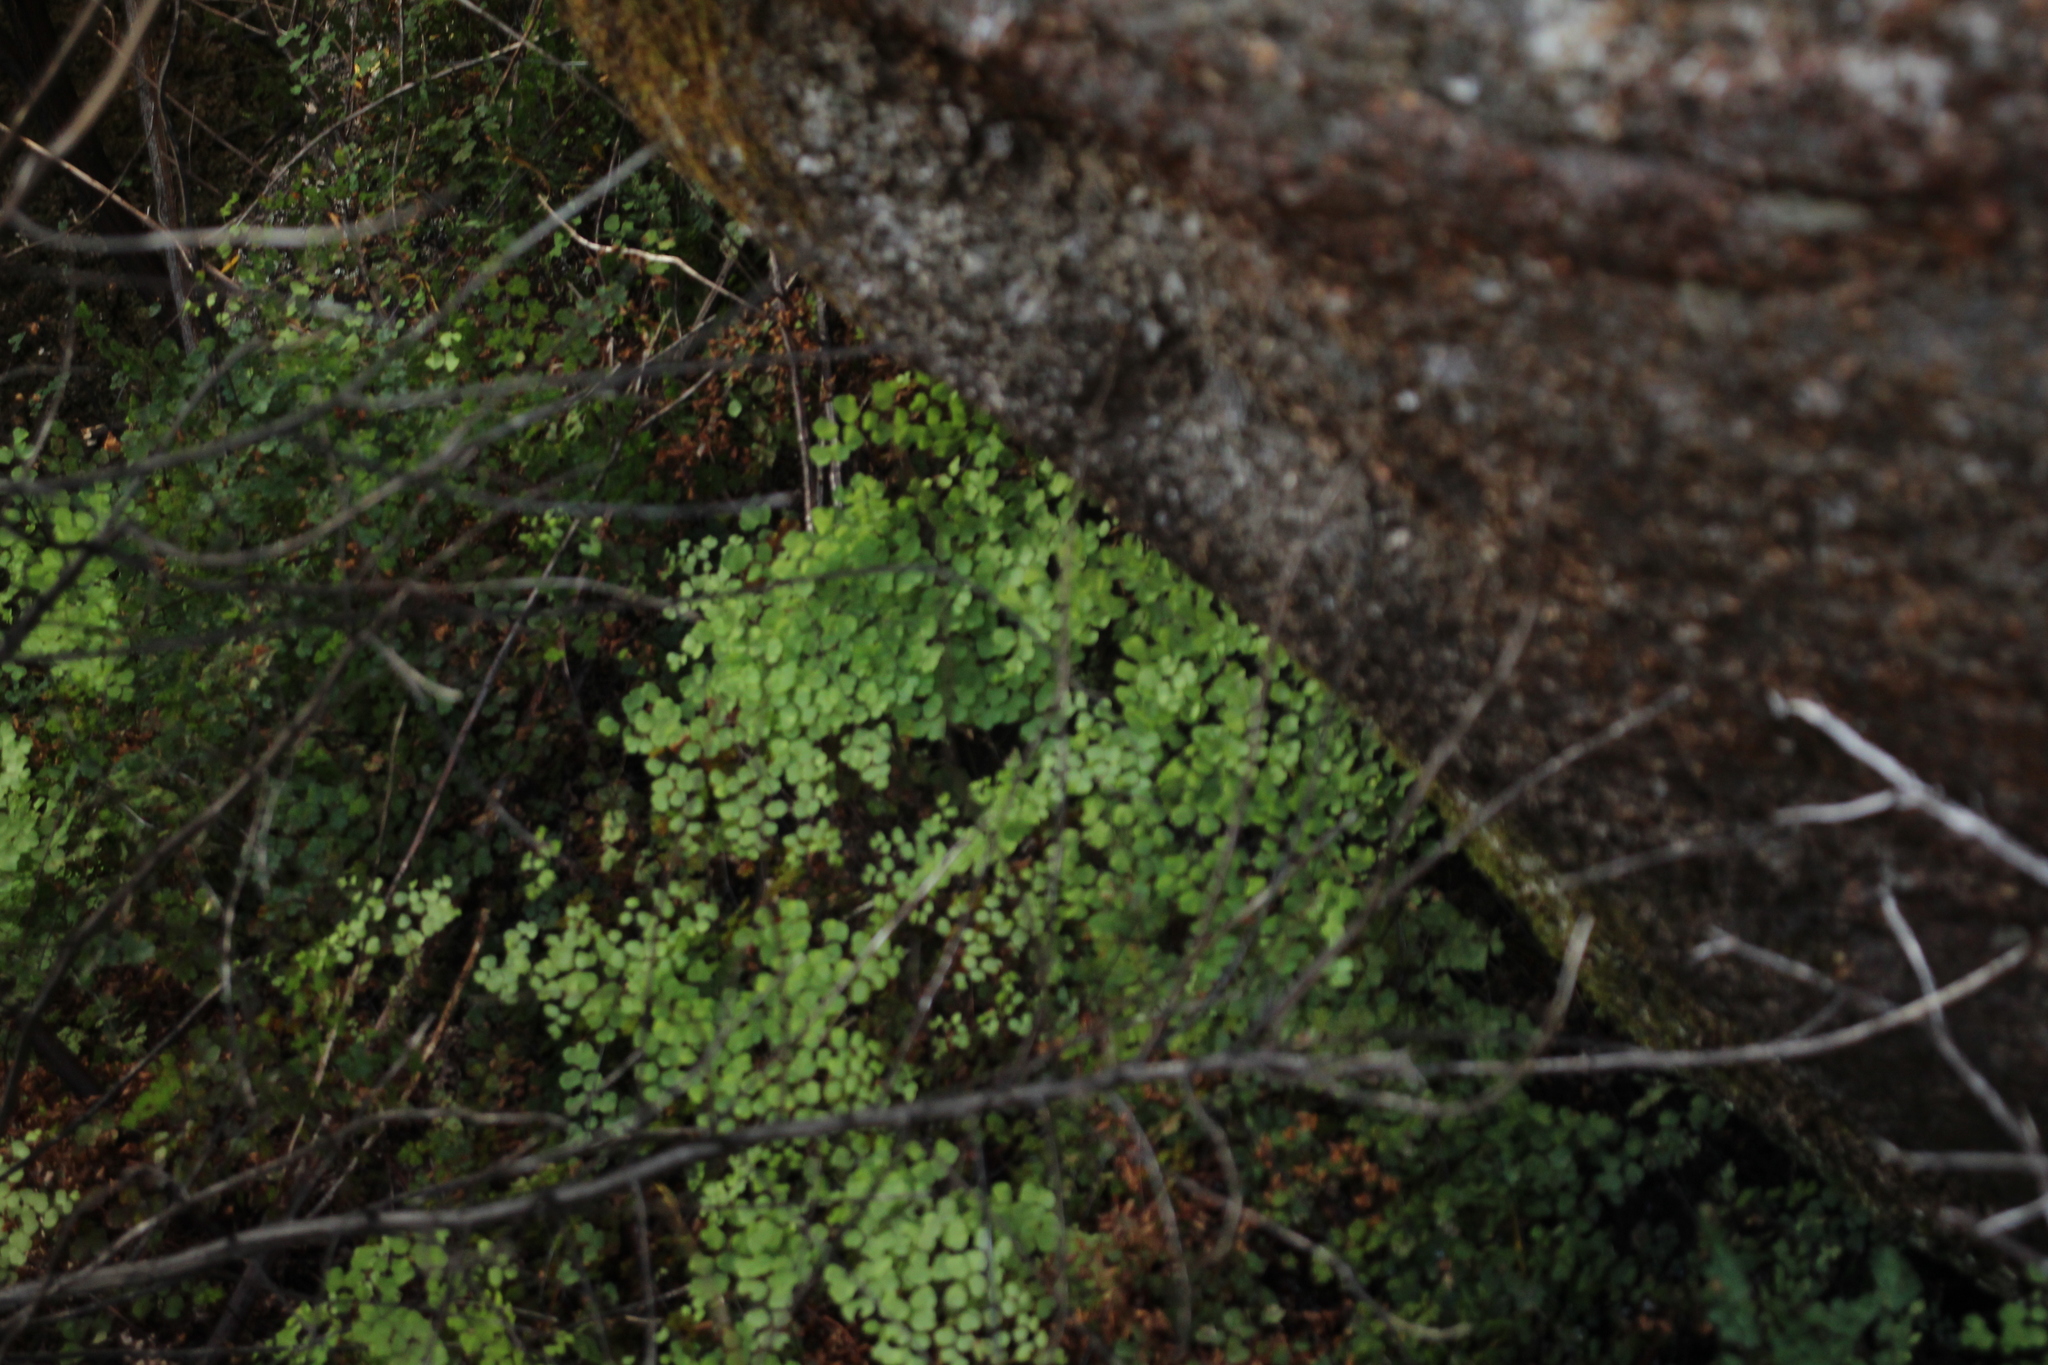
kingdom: Plantae
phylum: Tracheophyta
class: Polypodiopsida
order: Polypodiales
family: Pteridaceae
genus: Adiantum
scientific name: Adiantum aethiopicum
